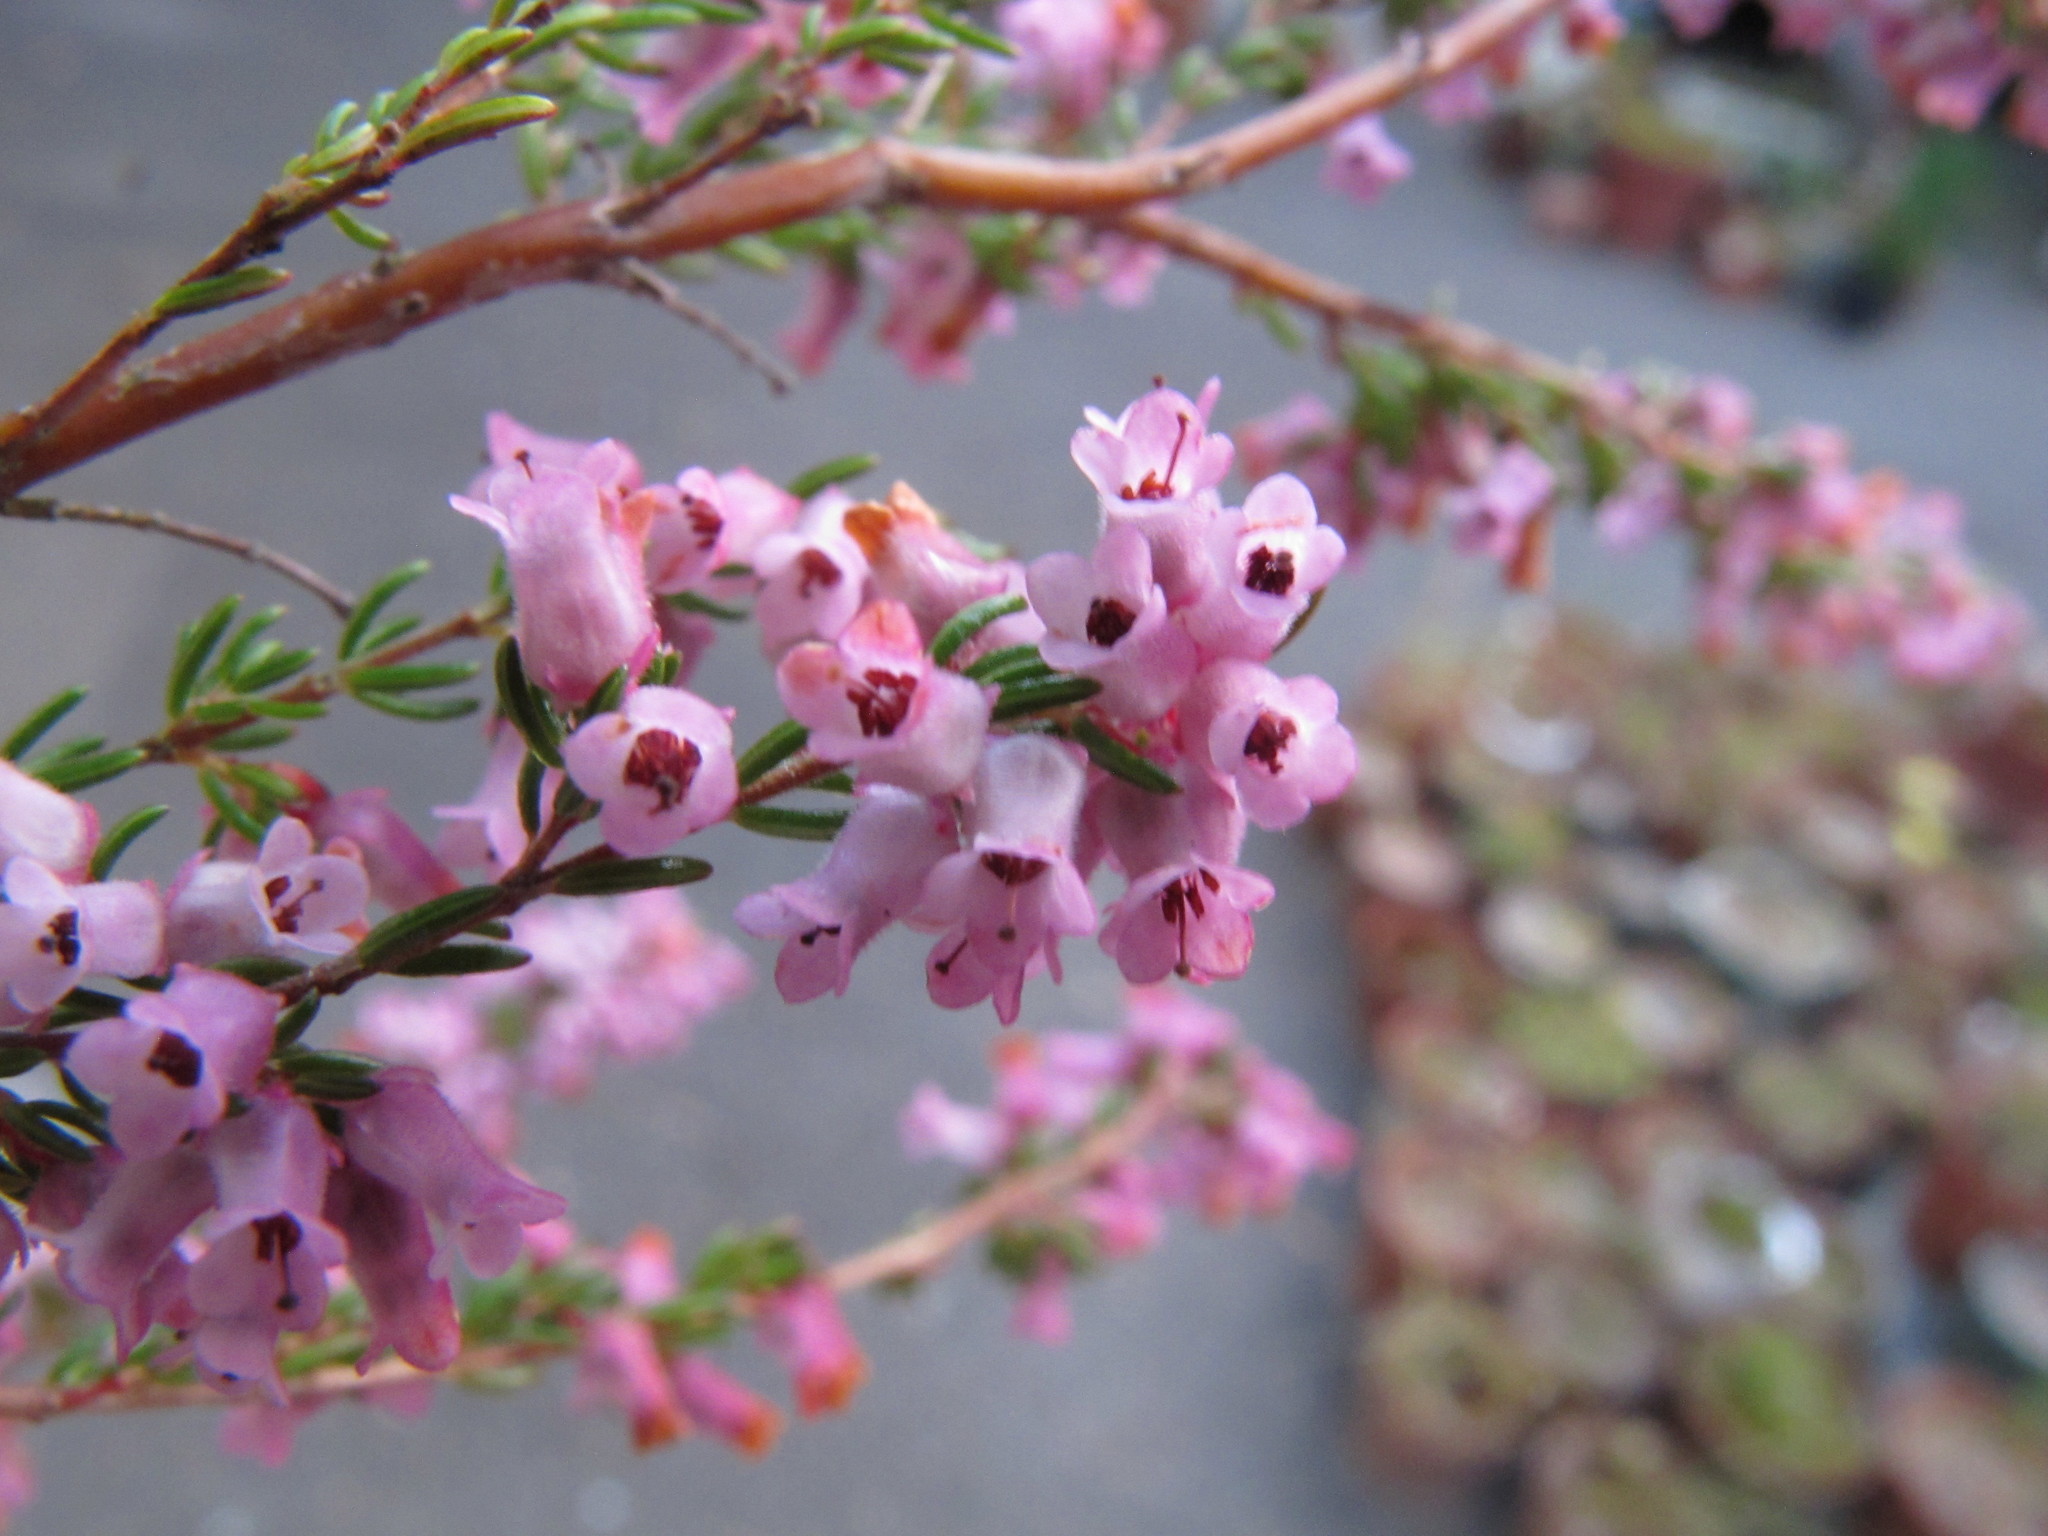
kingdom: Plantae
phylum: Tracheophyta
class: Magnoliopsida
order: Ericales
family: Ericaceae
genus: Erica
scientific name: Erica purgatoriensis
